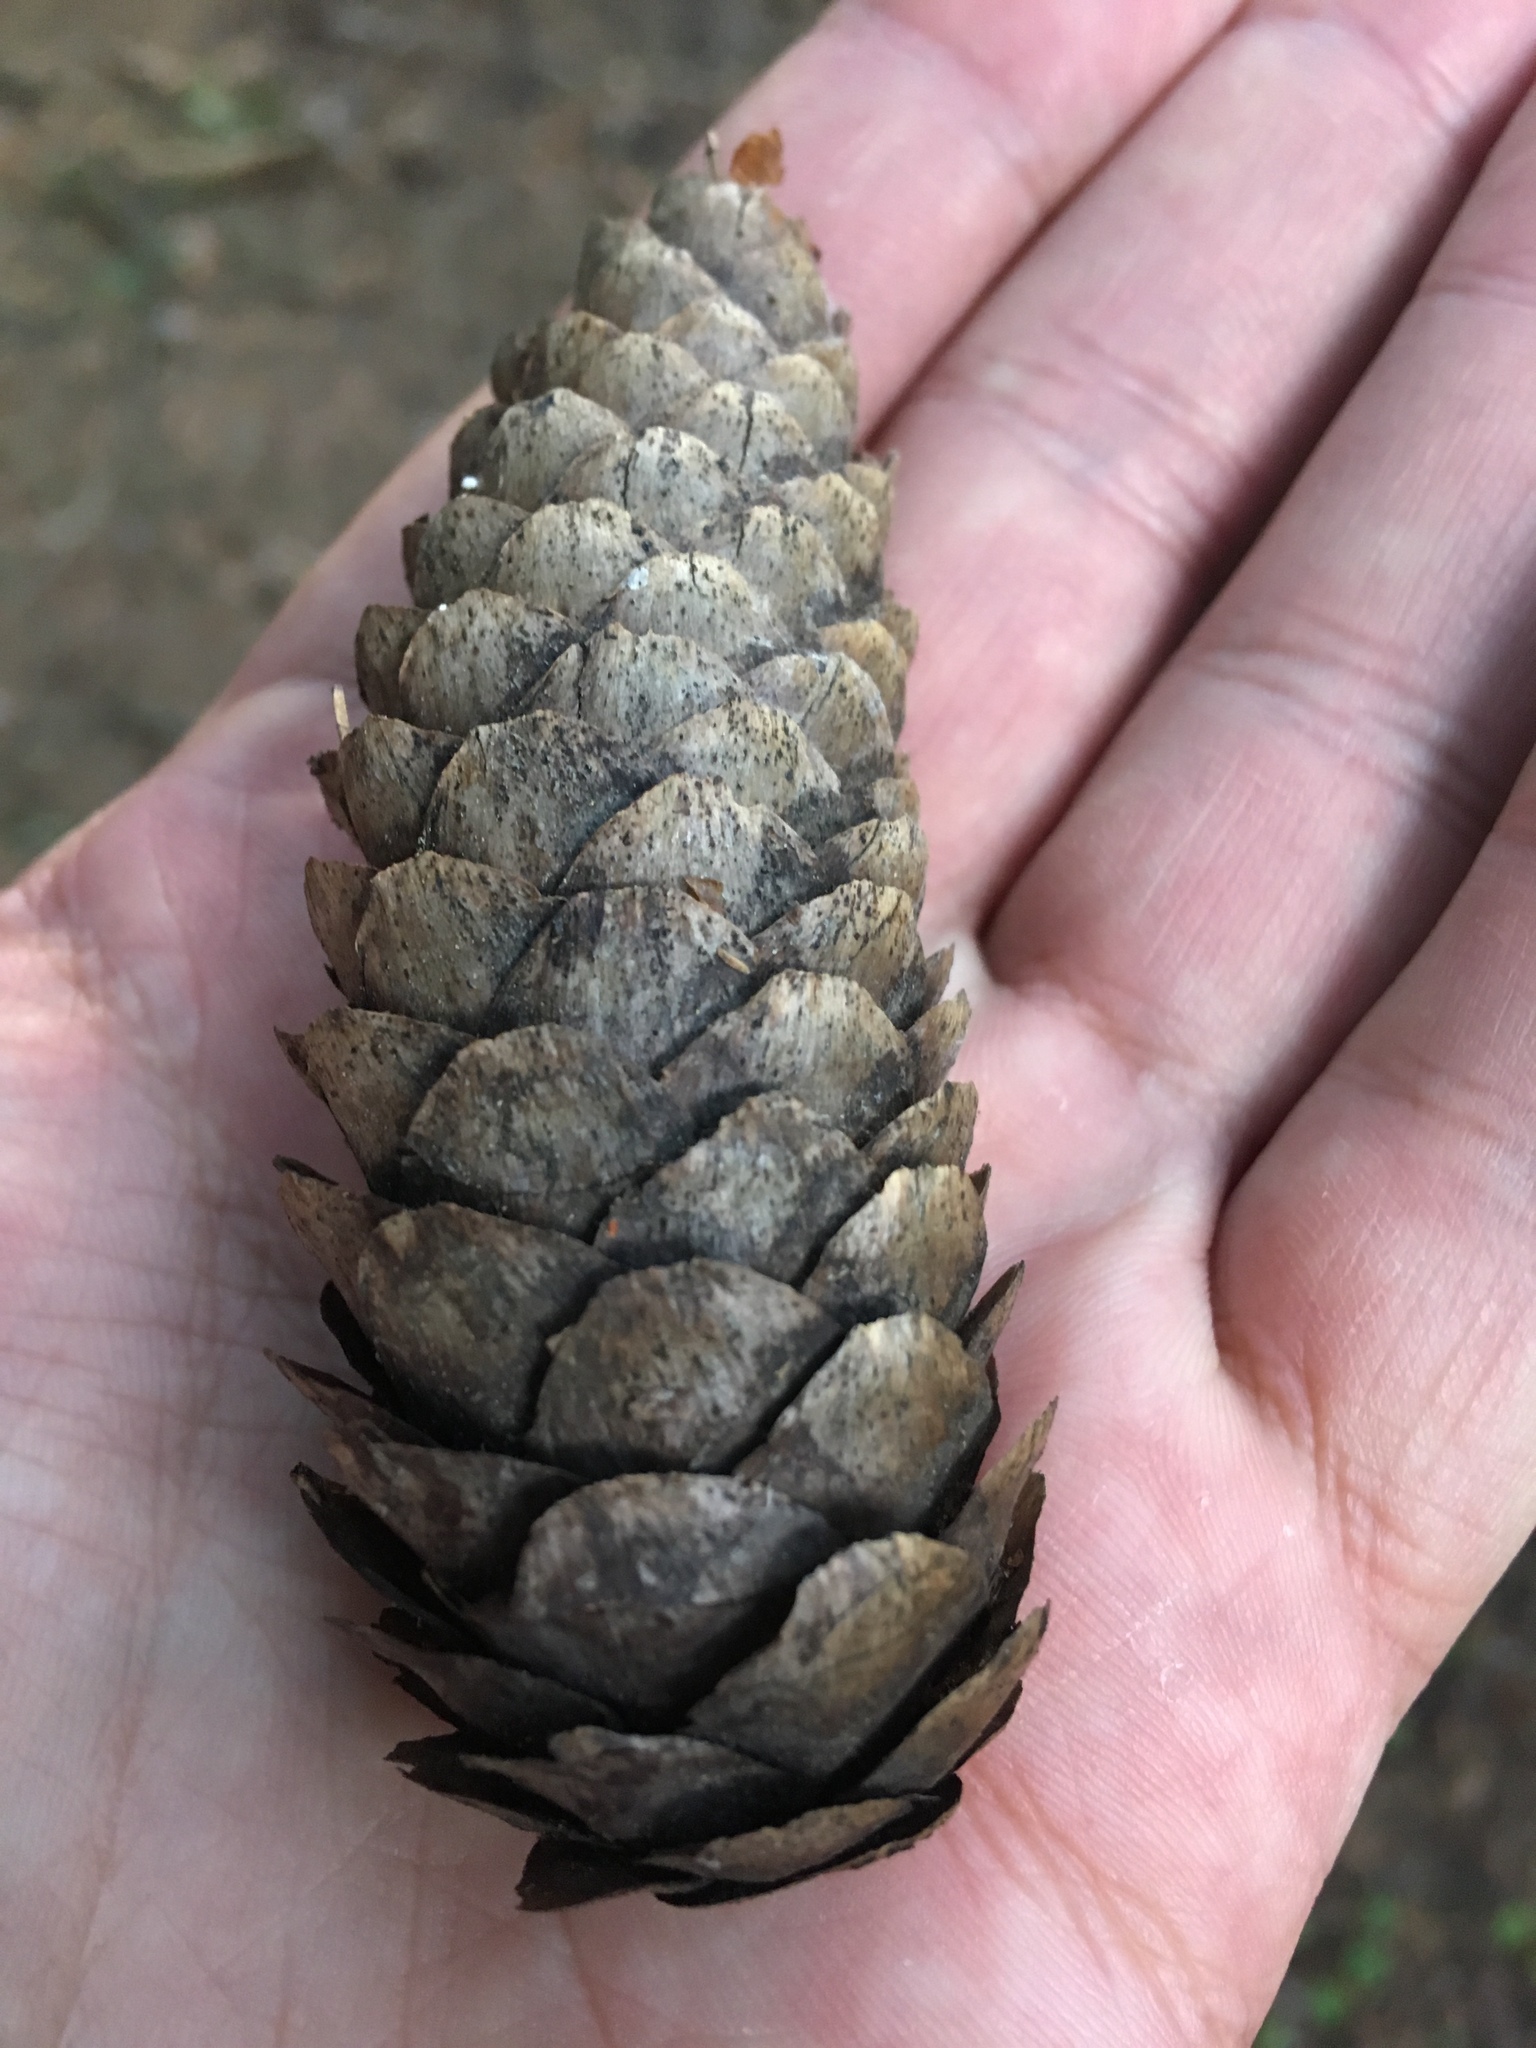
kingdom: Plantae
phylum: Tracheophyta
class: Pinopsida
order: Pinales
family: Pinaceae
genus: Picea
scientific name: Picea abies
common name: Norway spruce
